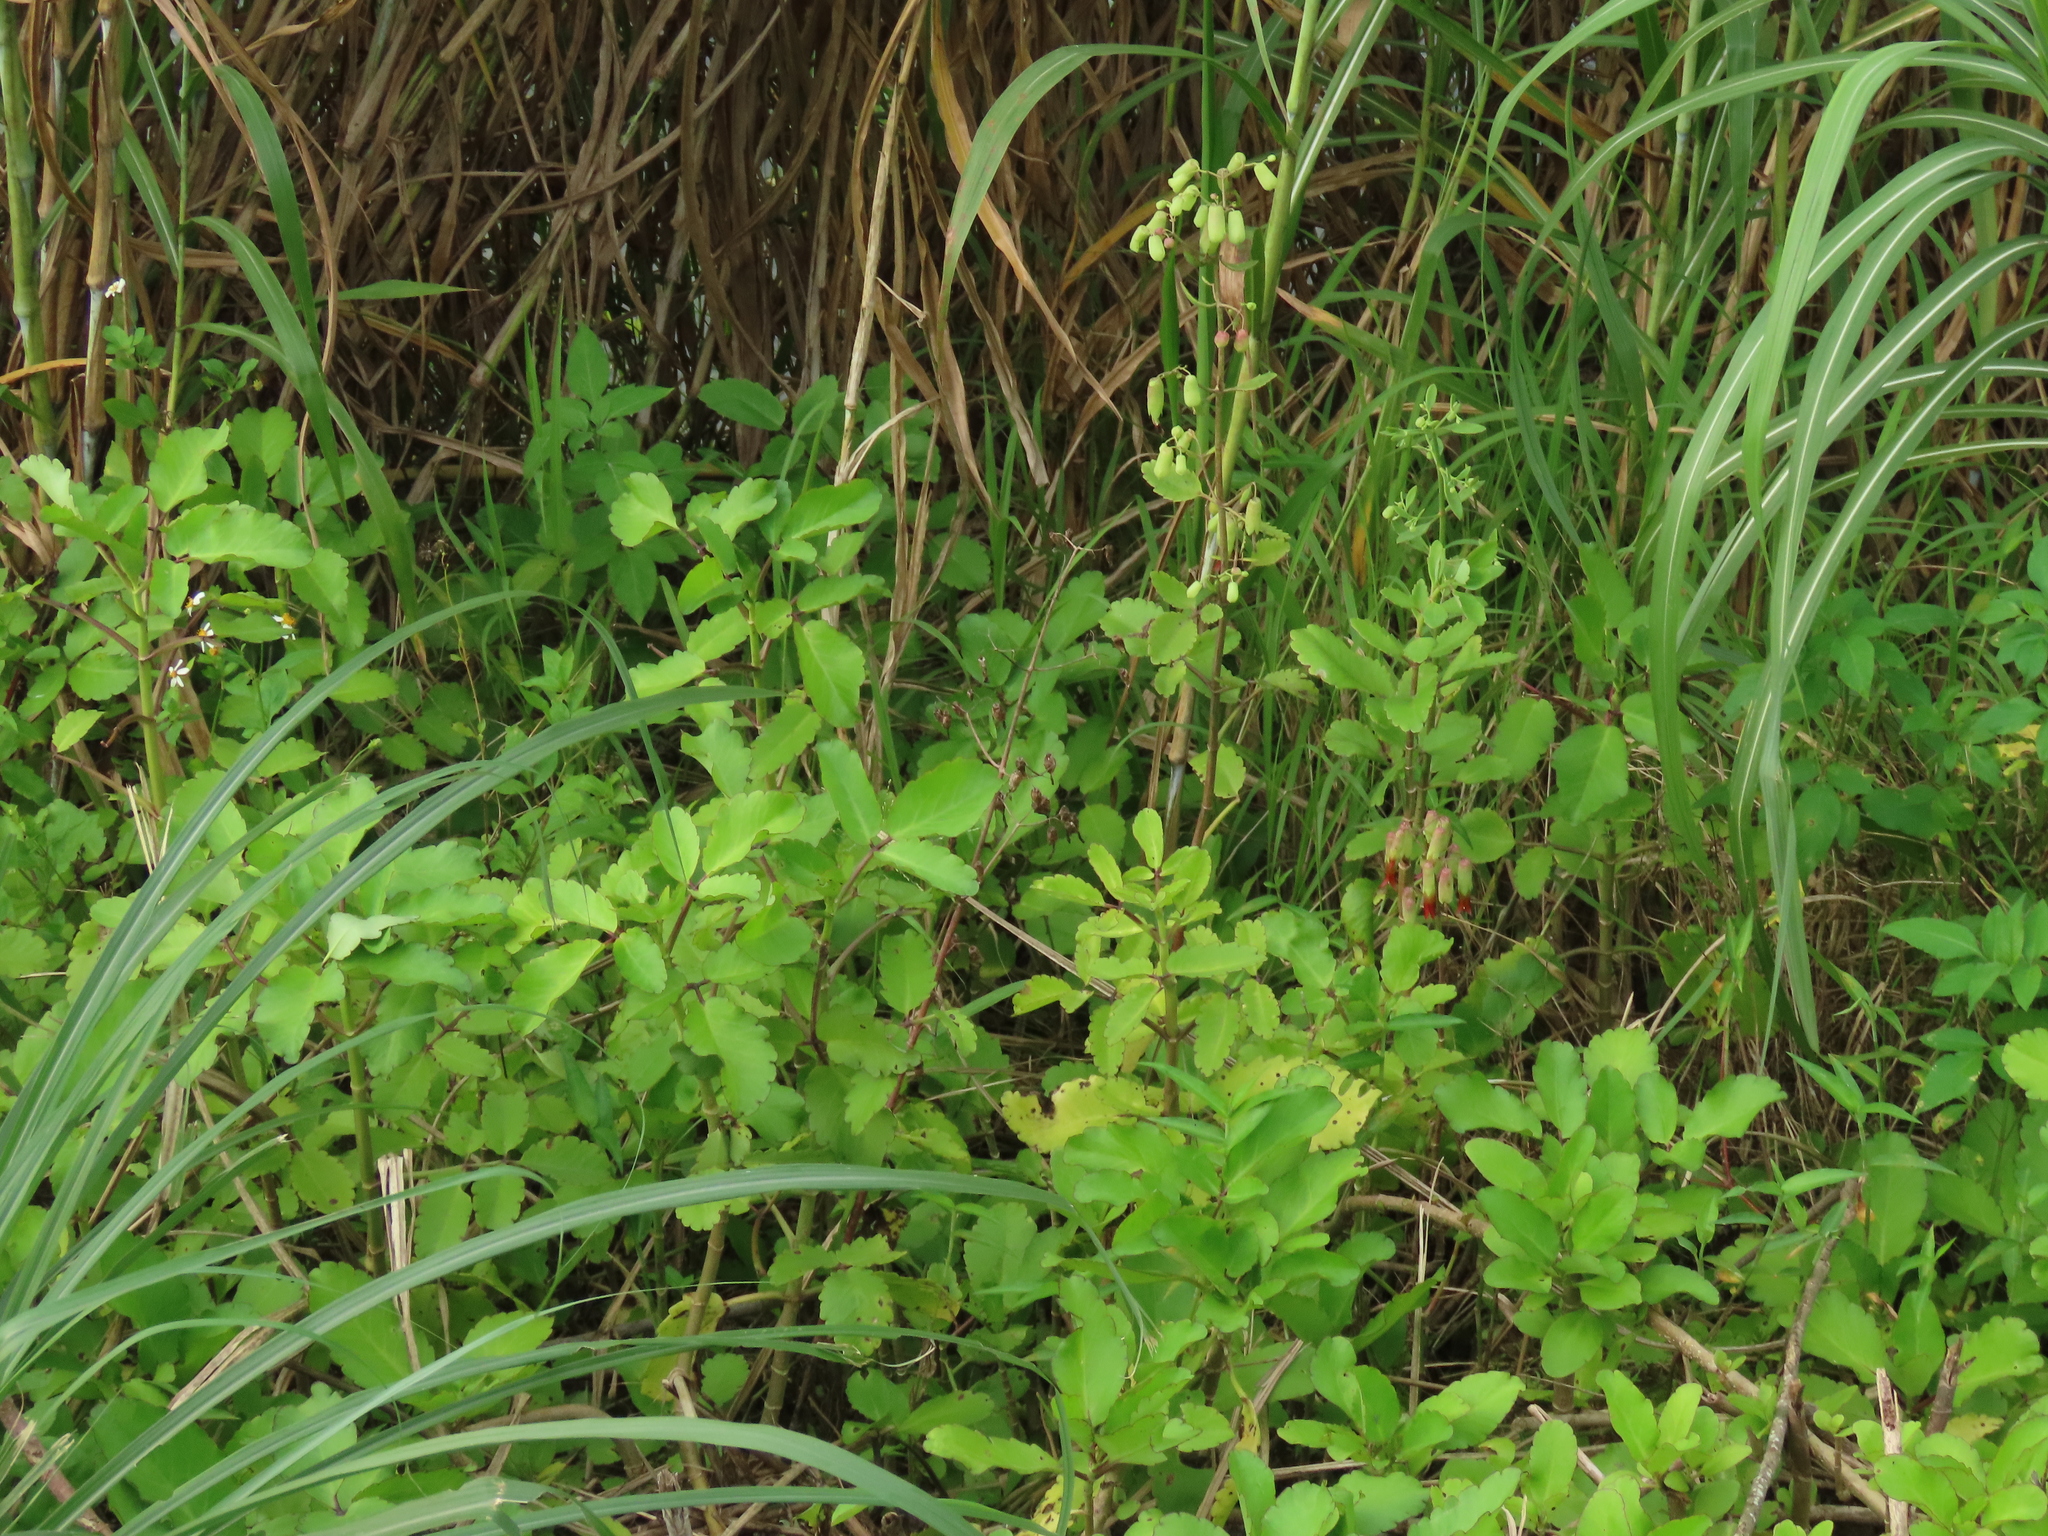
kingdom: Plantae
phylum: Tracheophyta
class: Magnoliopsida
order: Saxifragales
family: Crassulaceae
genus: Kalanchoe
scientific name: Kalanchoe pinnata
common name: Cathedral bells
